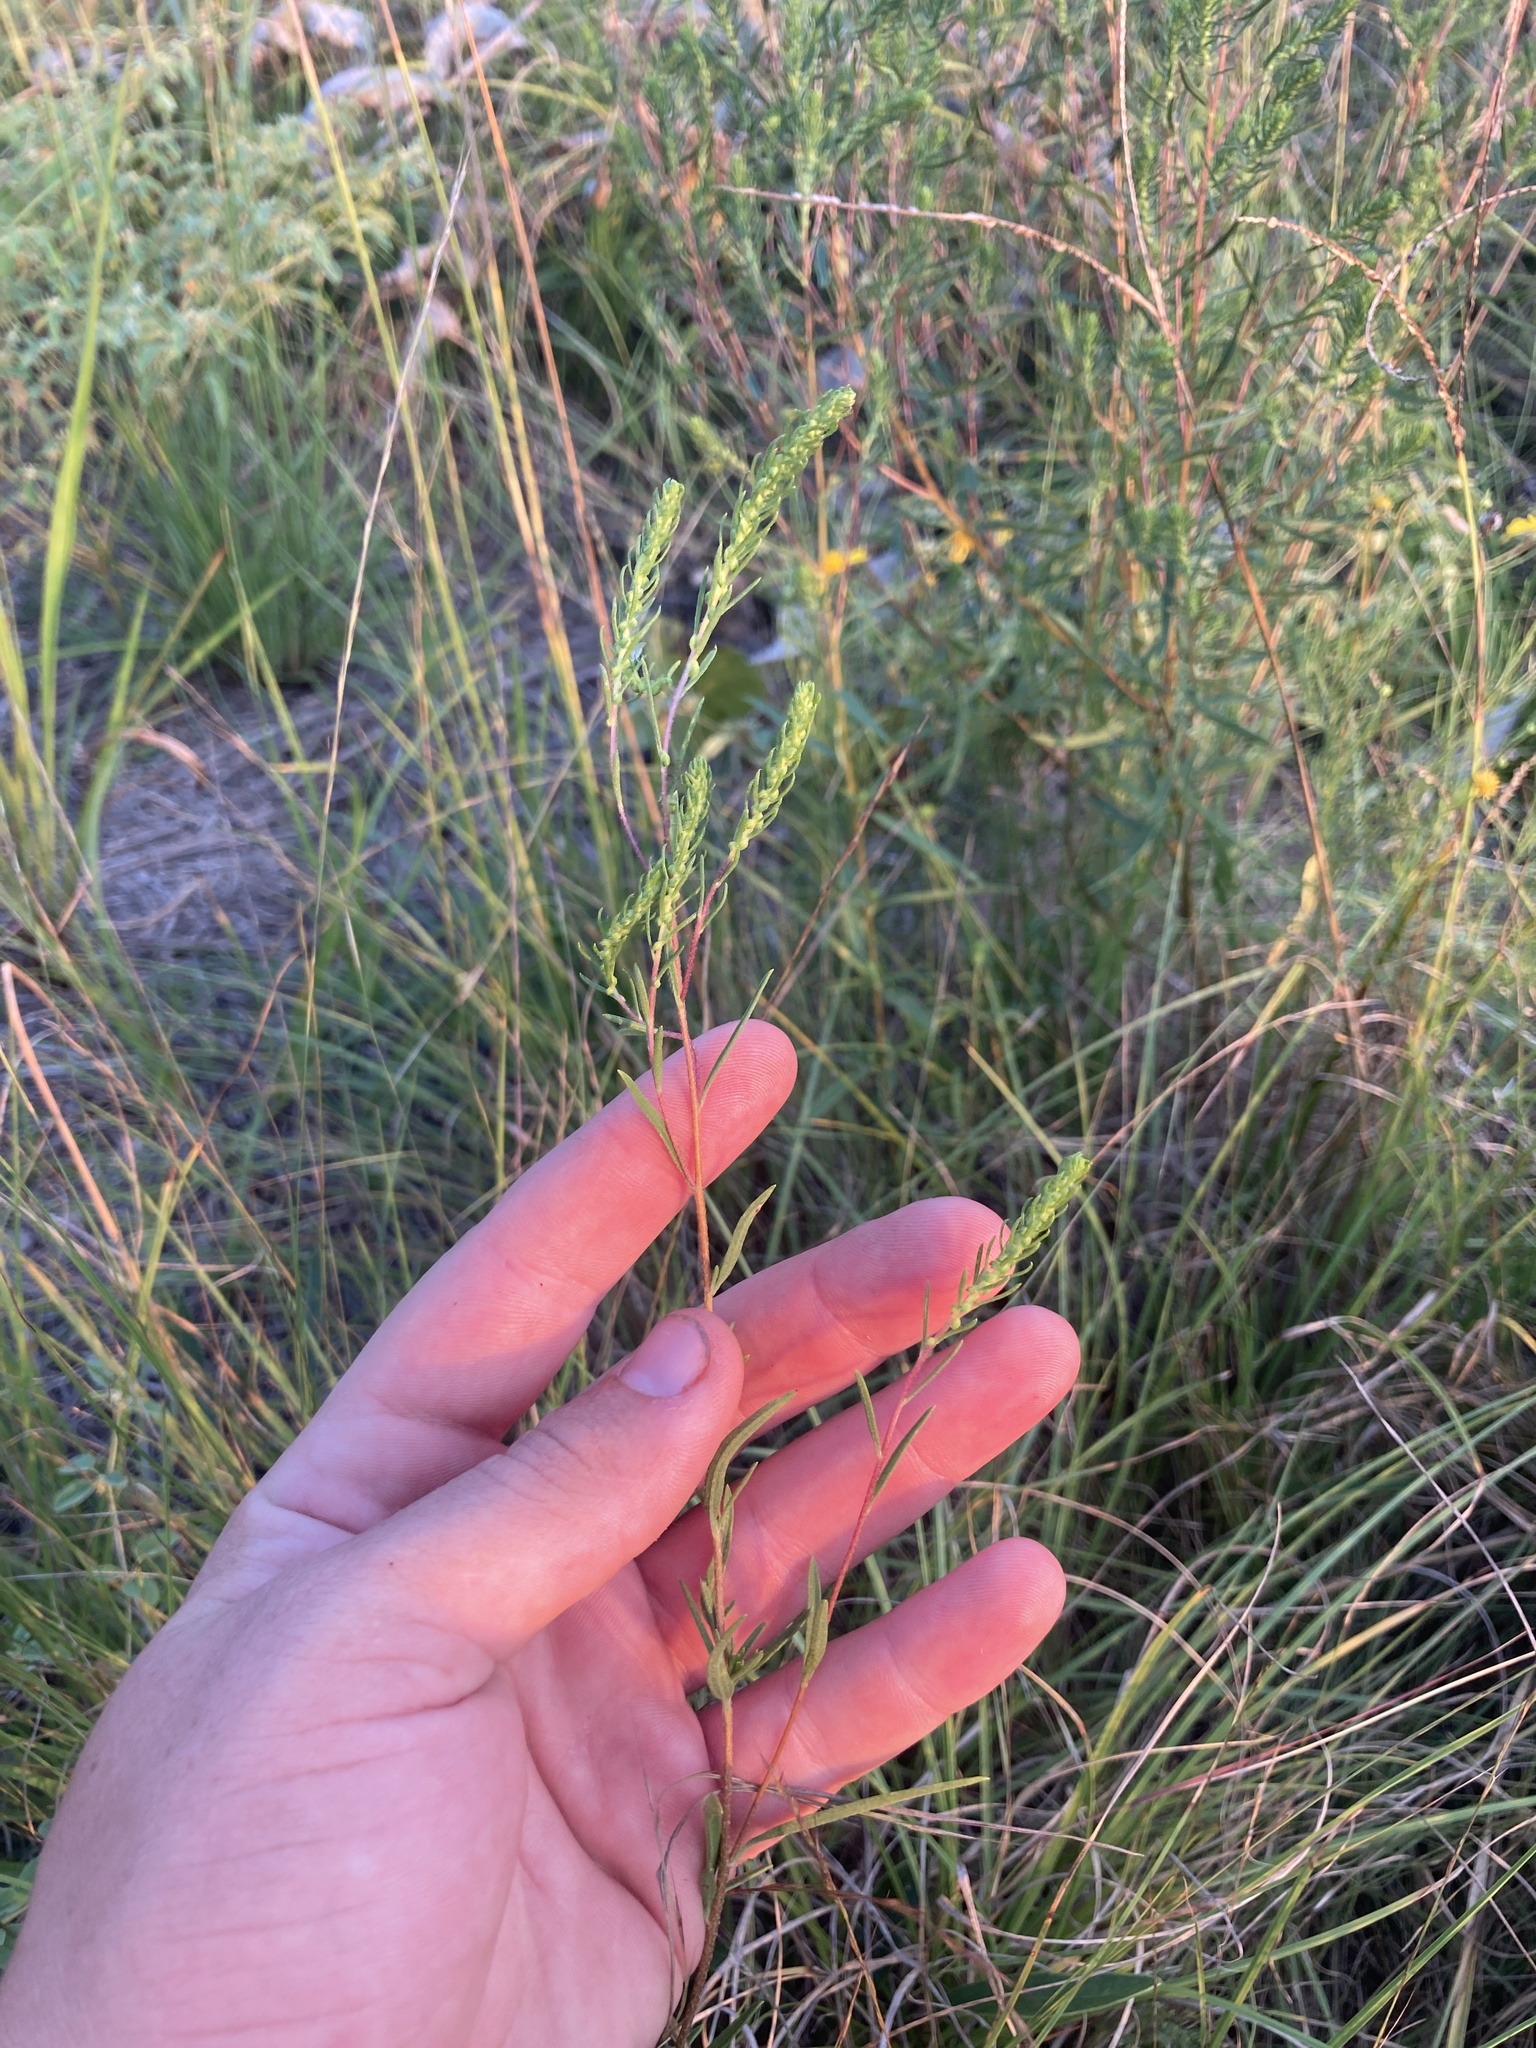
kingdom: Plantae
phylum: Tracheophyta
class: Magnoliopsida
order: Asterales
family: Asteraceae
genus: Iva
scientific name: Iva asperifolia
